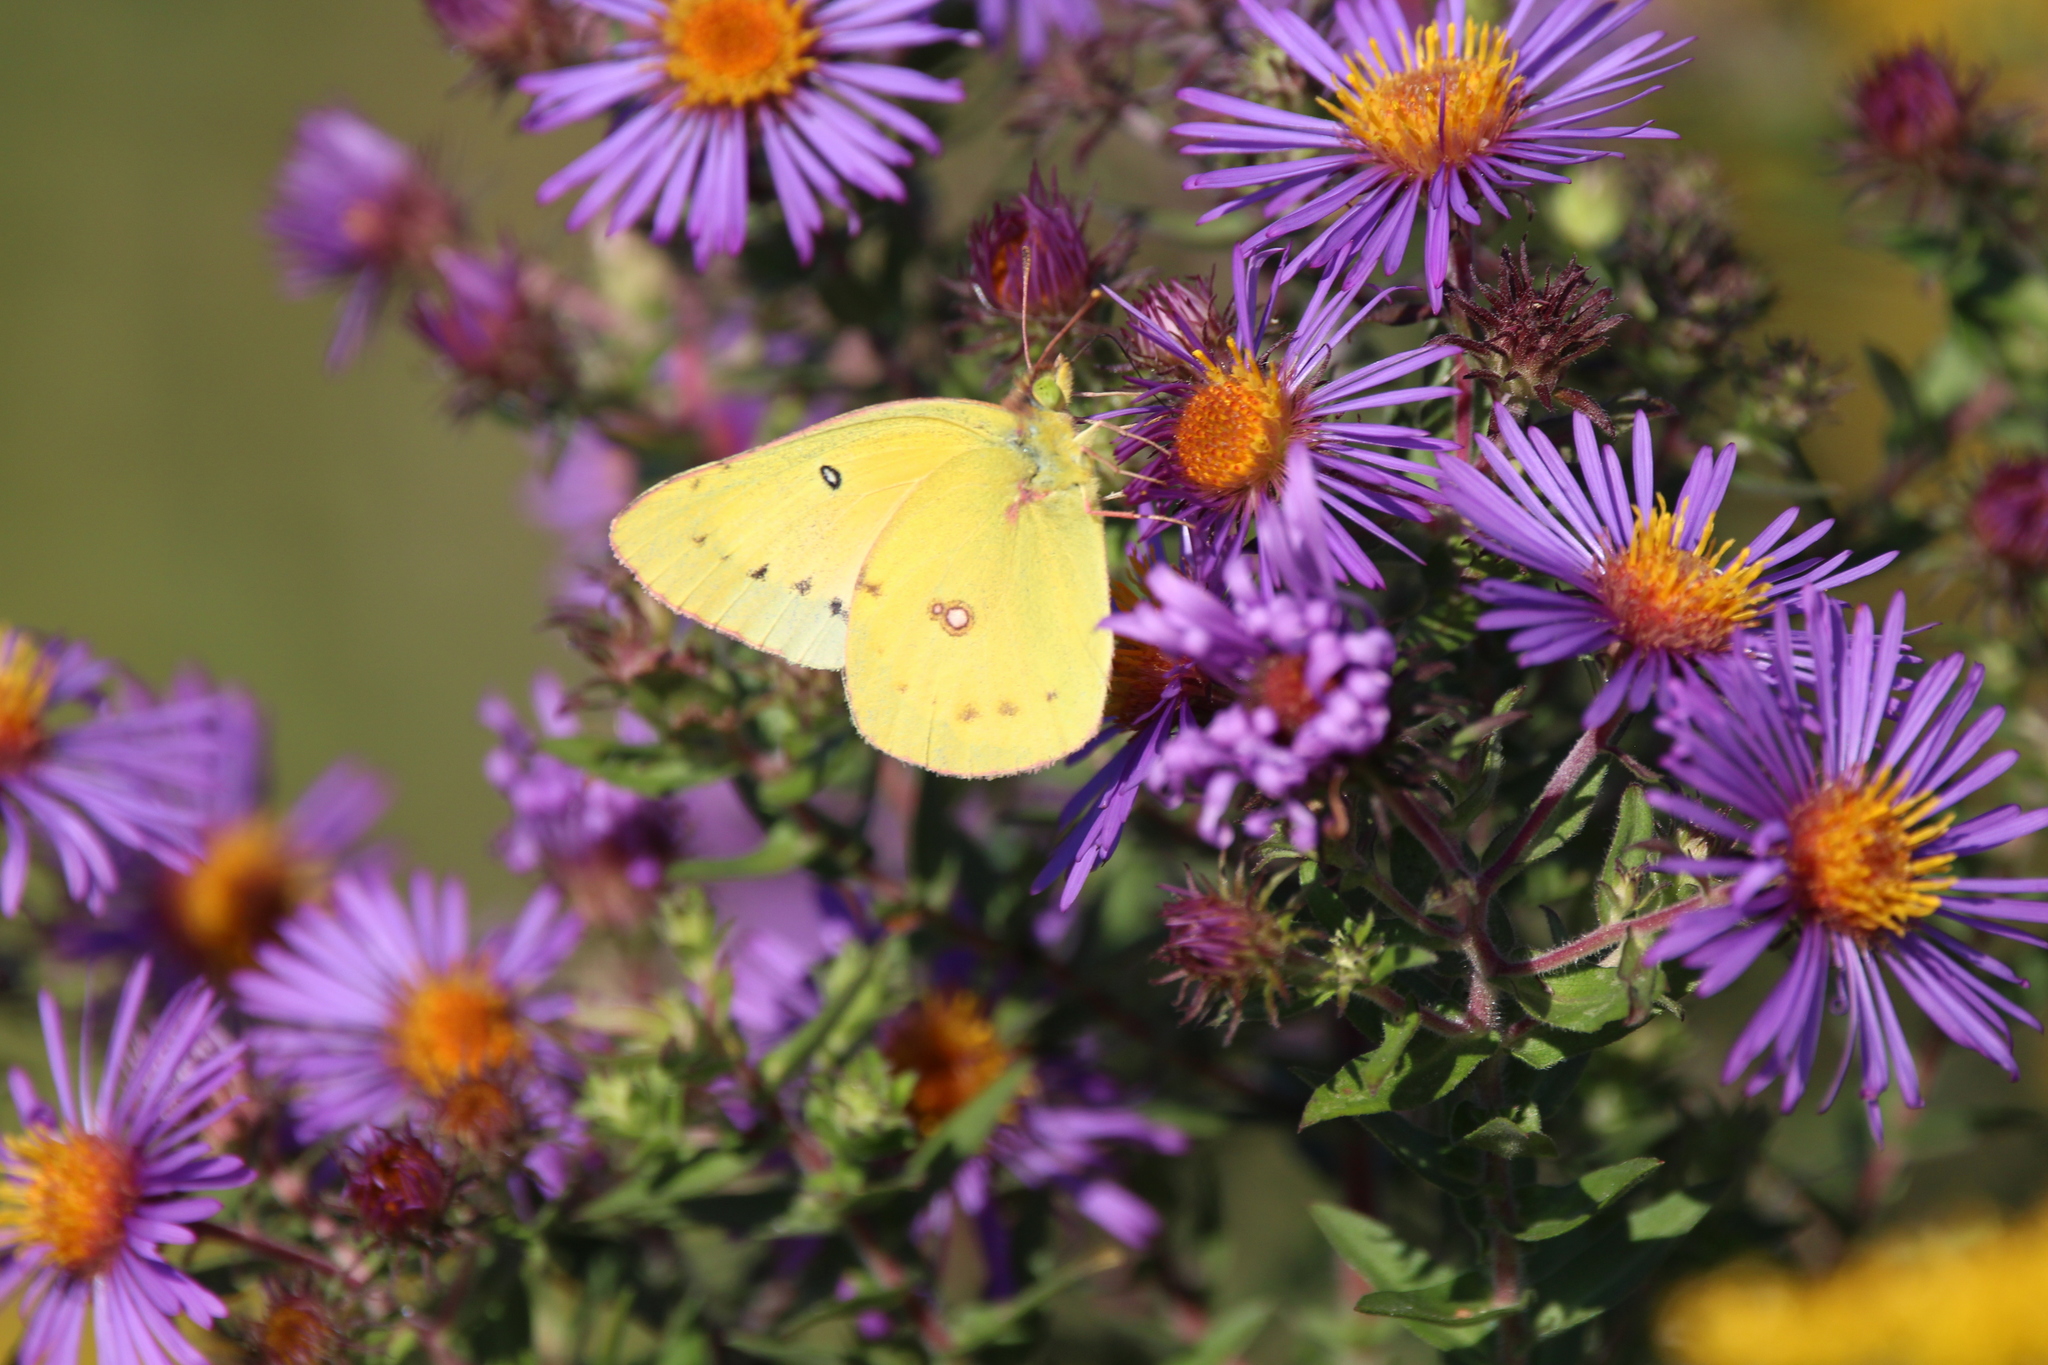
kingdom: Animalia
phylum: Arthropoda
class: Insecta
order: Lepidoptera
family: Pieridae
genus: Colias
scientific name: Colias eurytheme
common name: Alfalfa butterfly
